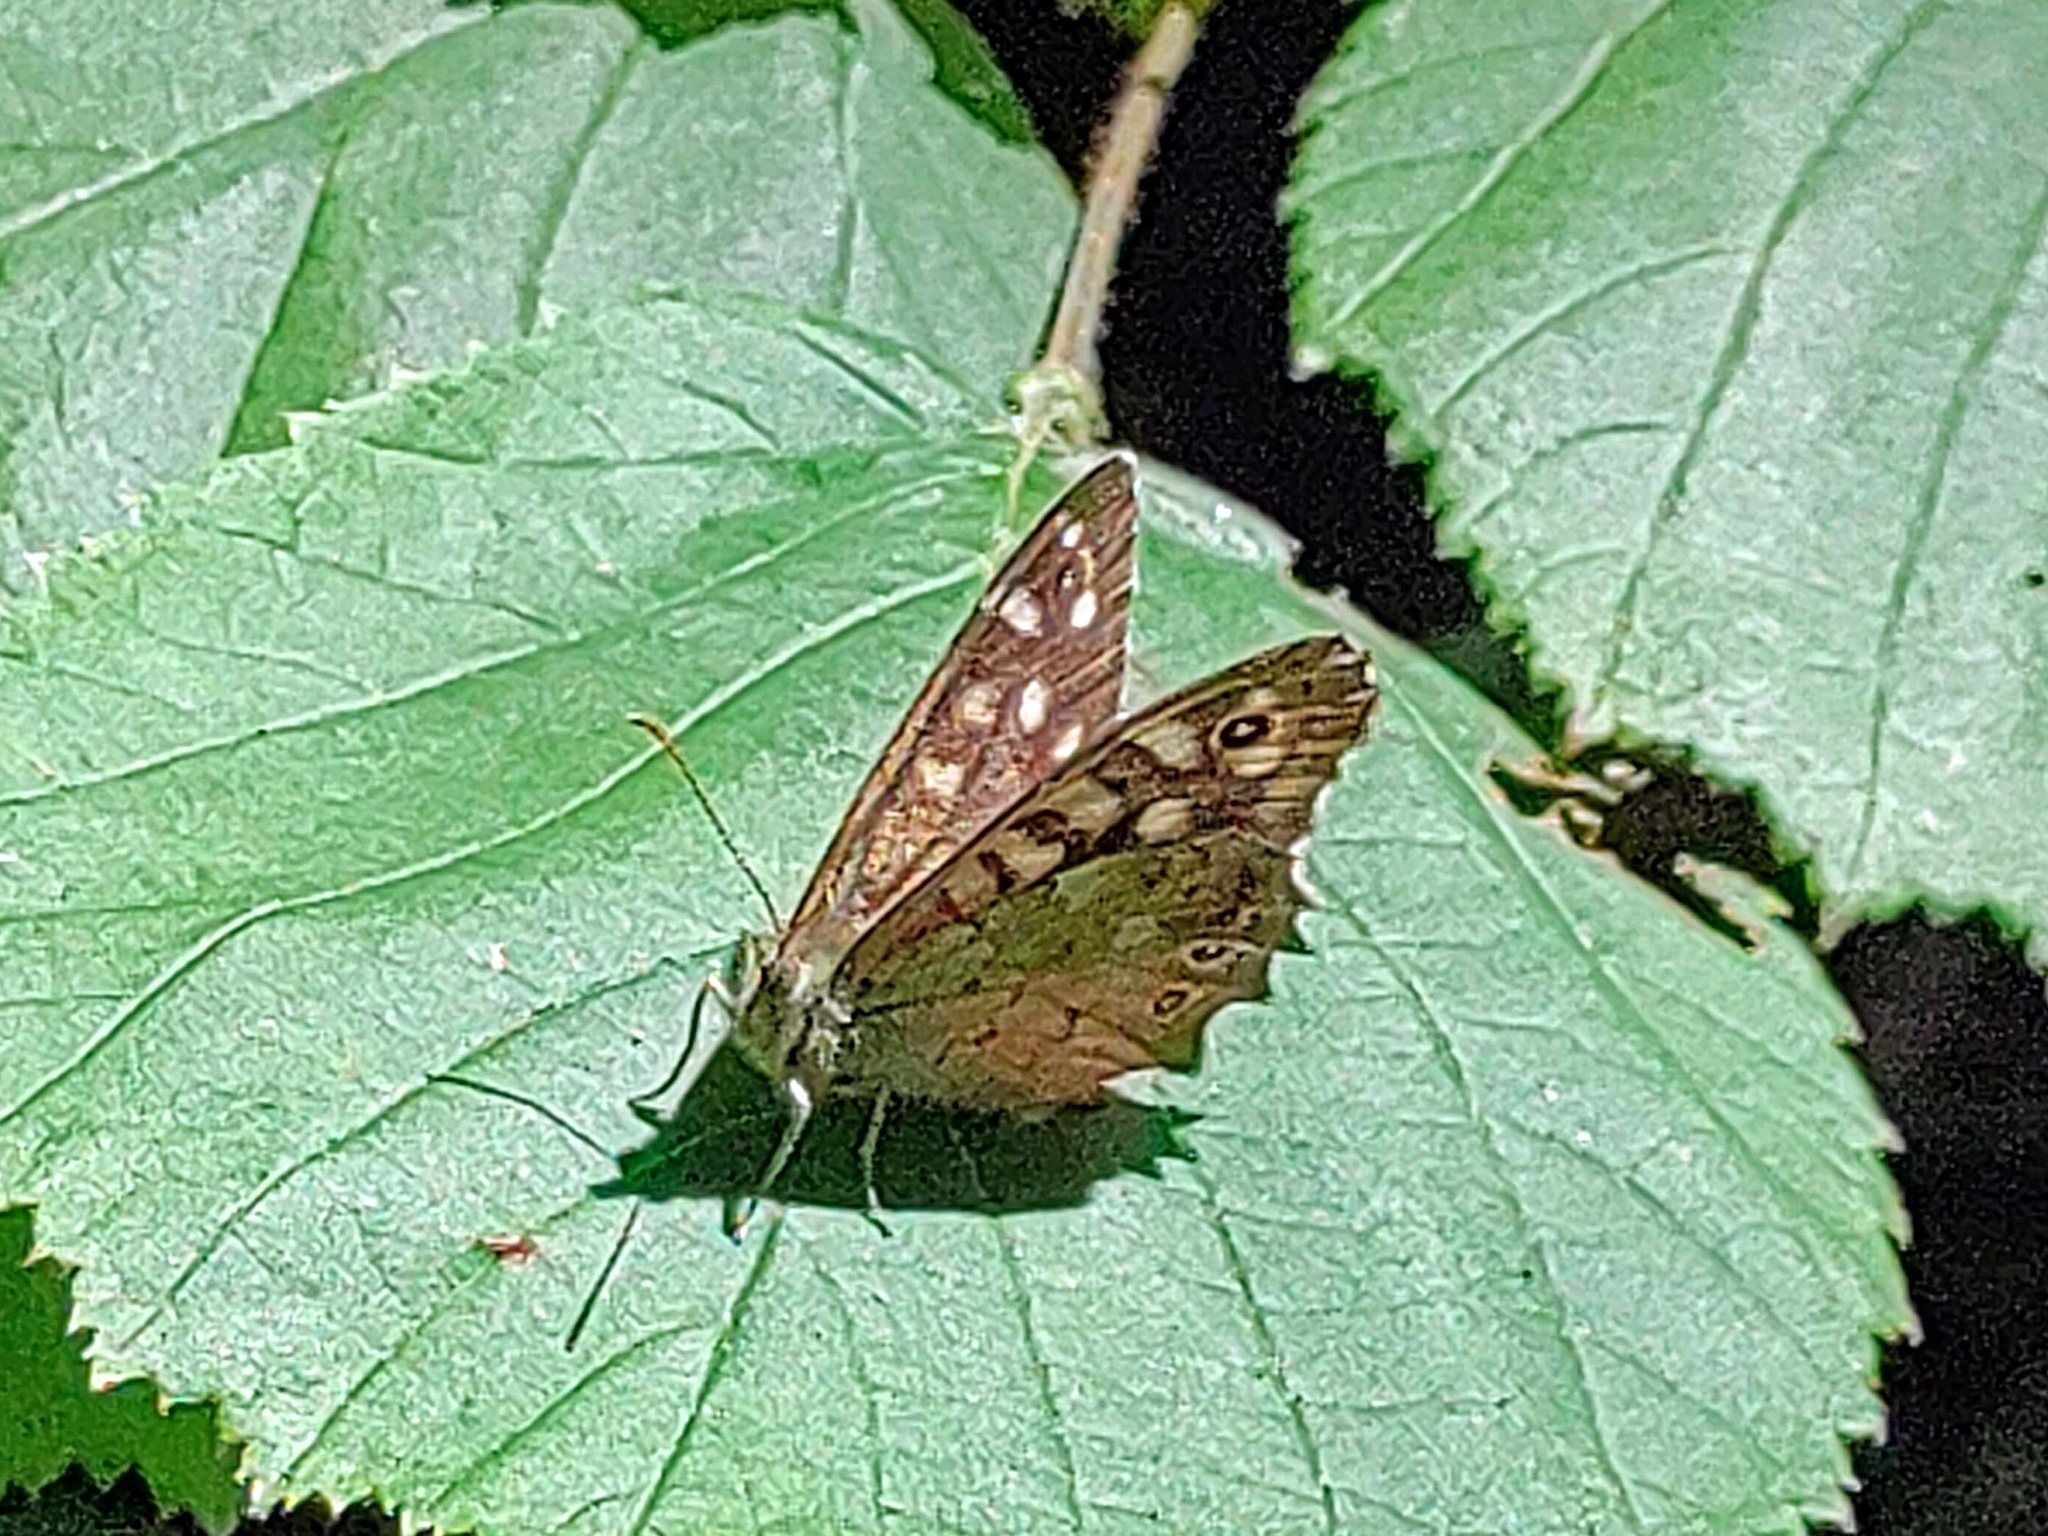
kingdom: Animalia
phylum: Arthropoda
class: Insecta
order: Lepidoptera
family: Nymphalidae
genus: Pararge
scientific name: Pararge aegeria
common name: Speckled wood
